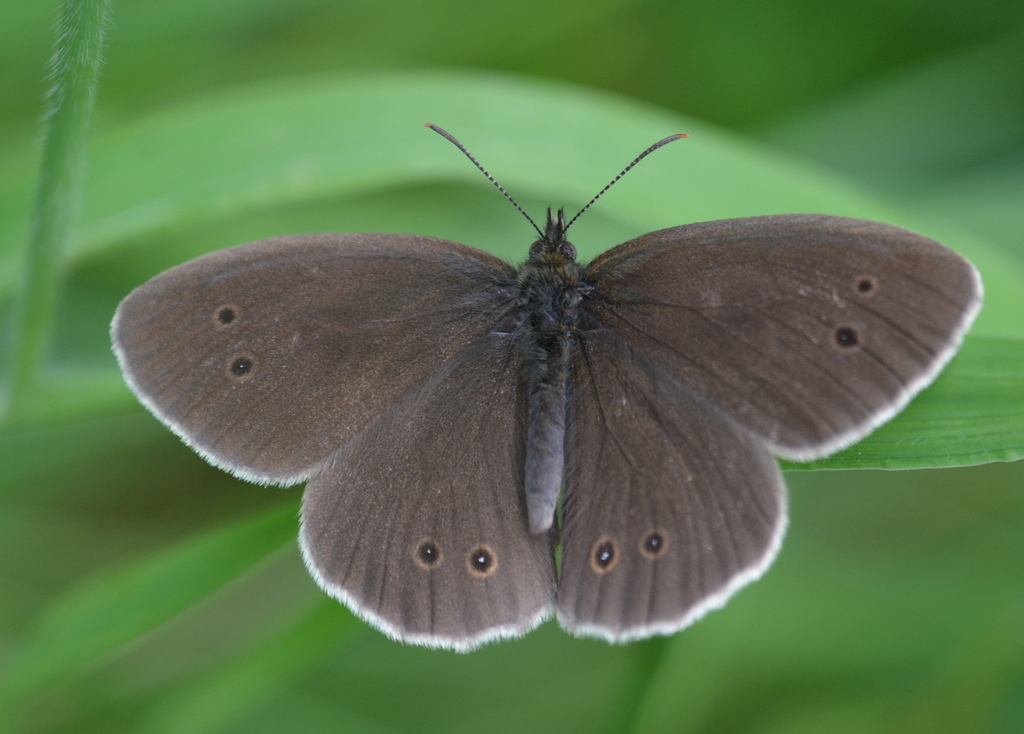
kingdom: Animalia
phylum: Arthropoda
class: Insecta
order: Lepidoptera
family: Nymphalidae
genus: Aphantopus
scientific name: Aphantopus hyperantus
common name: Ringlet
